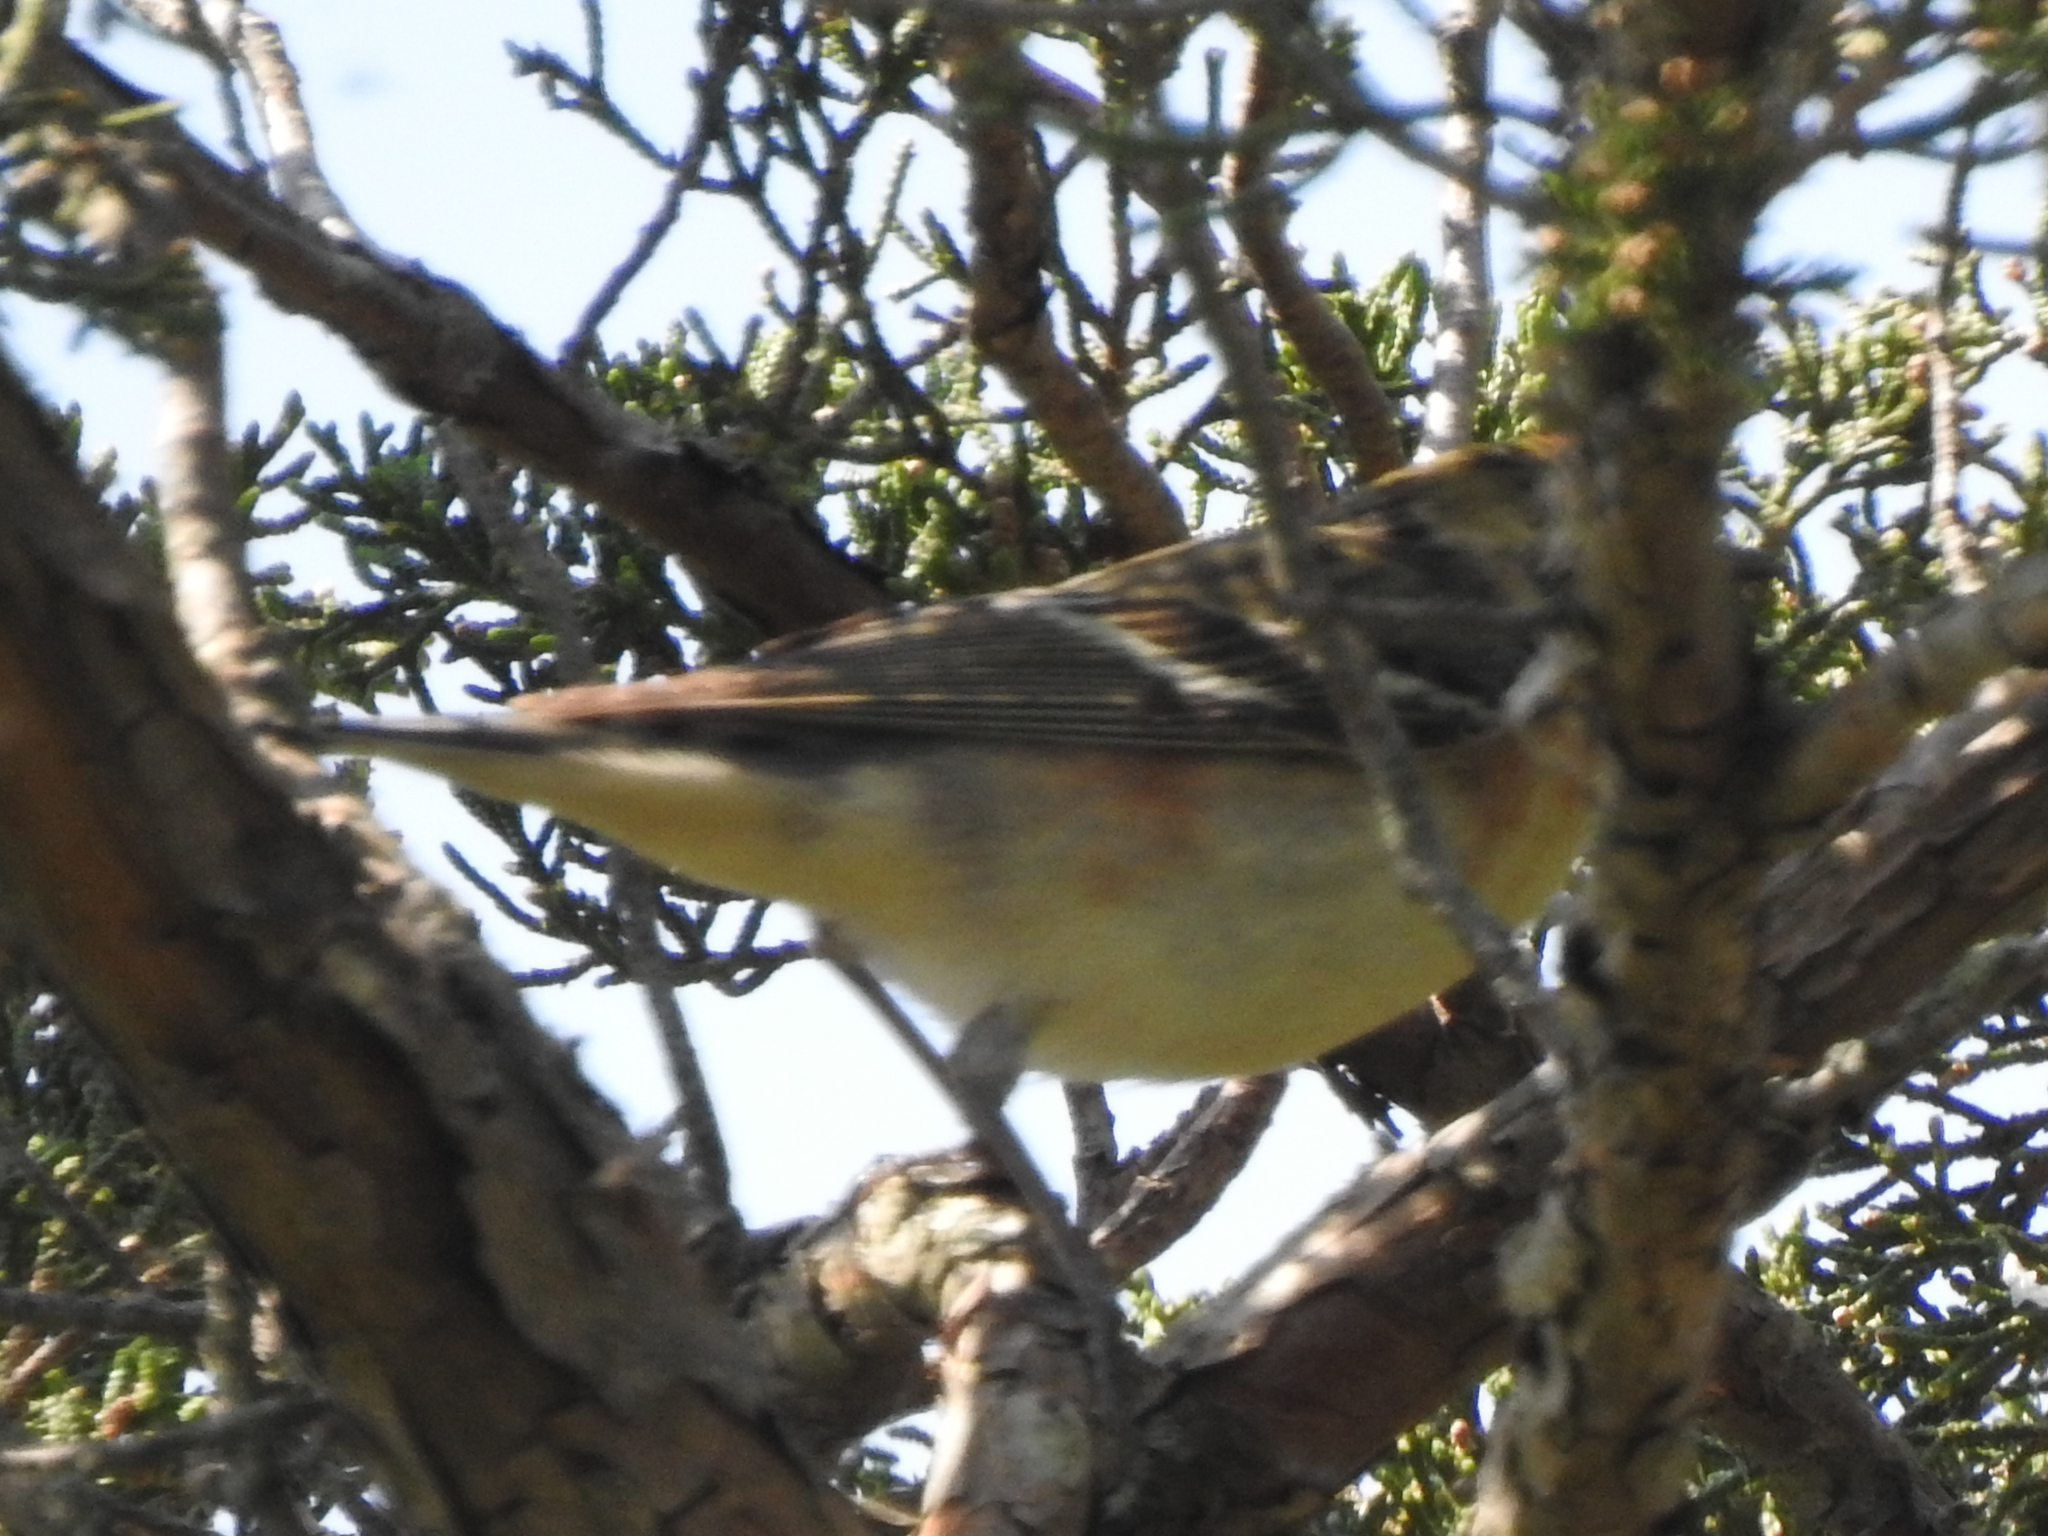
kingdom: Animalia
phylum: Chordata
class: Aves
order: Passeriformes
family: Parulidae
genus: Setophaga
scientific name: Setophaga castanea
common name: Bay-breasted warbler
